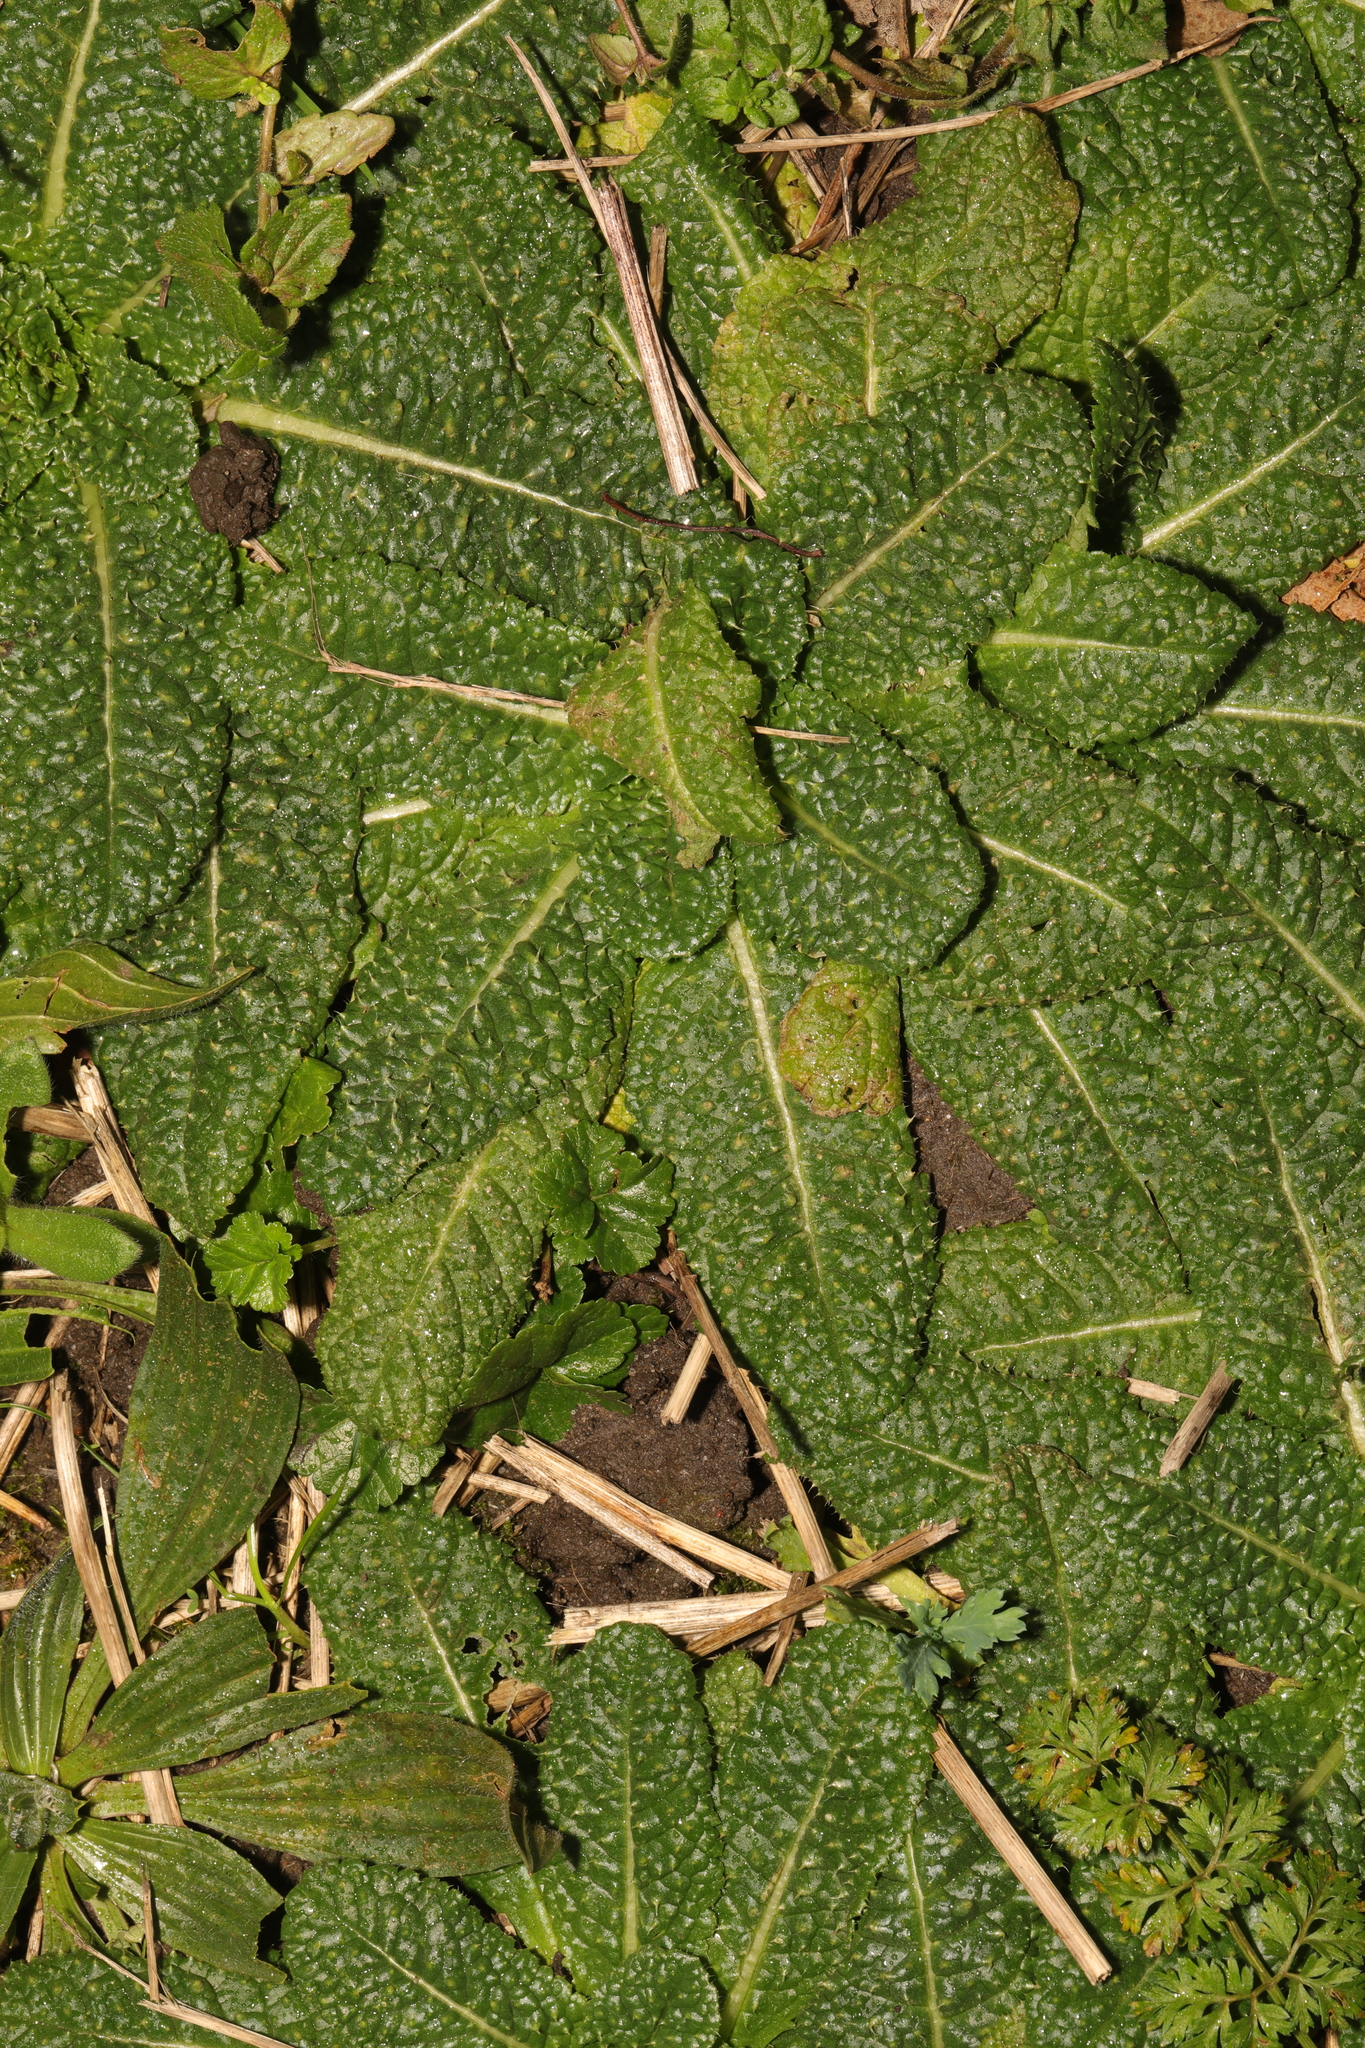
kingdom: Plantae
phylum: Tracheophyta
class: Magnoliopsida
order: Asterales
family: Asteraceae
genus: Helminthotheca
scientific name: Helminthotheca echioides
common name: Ox-tongue
